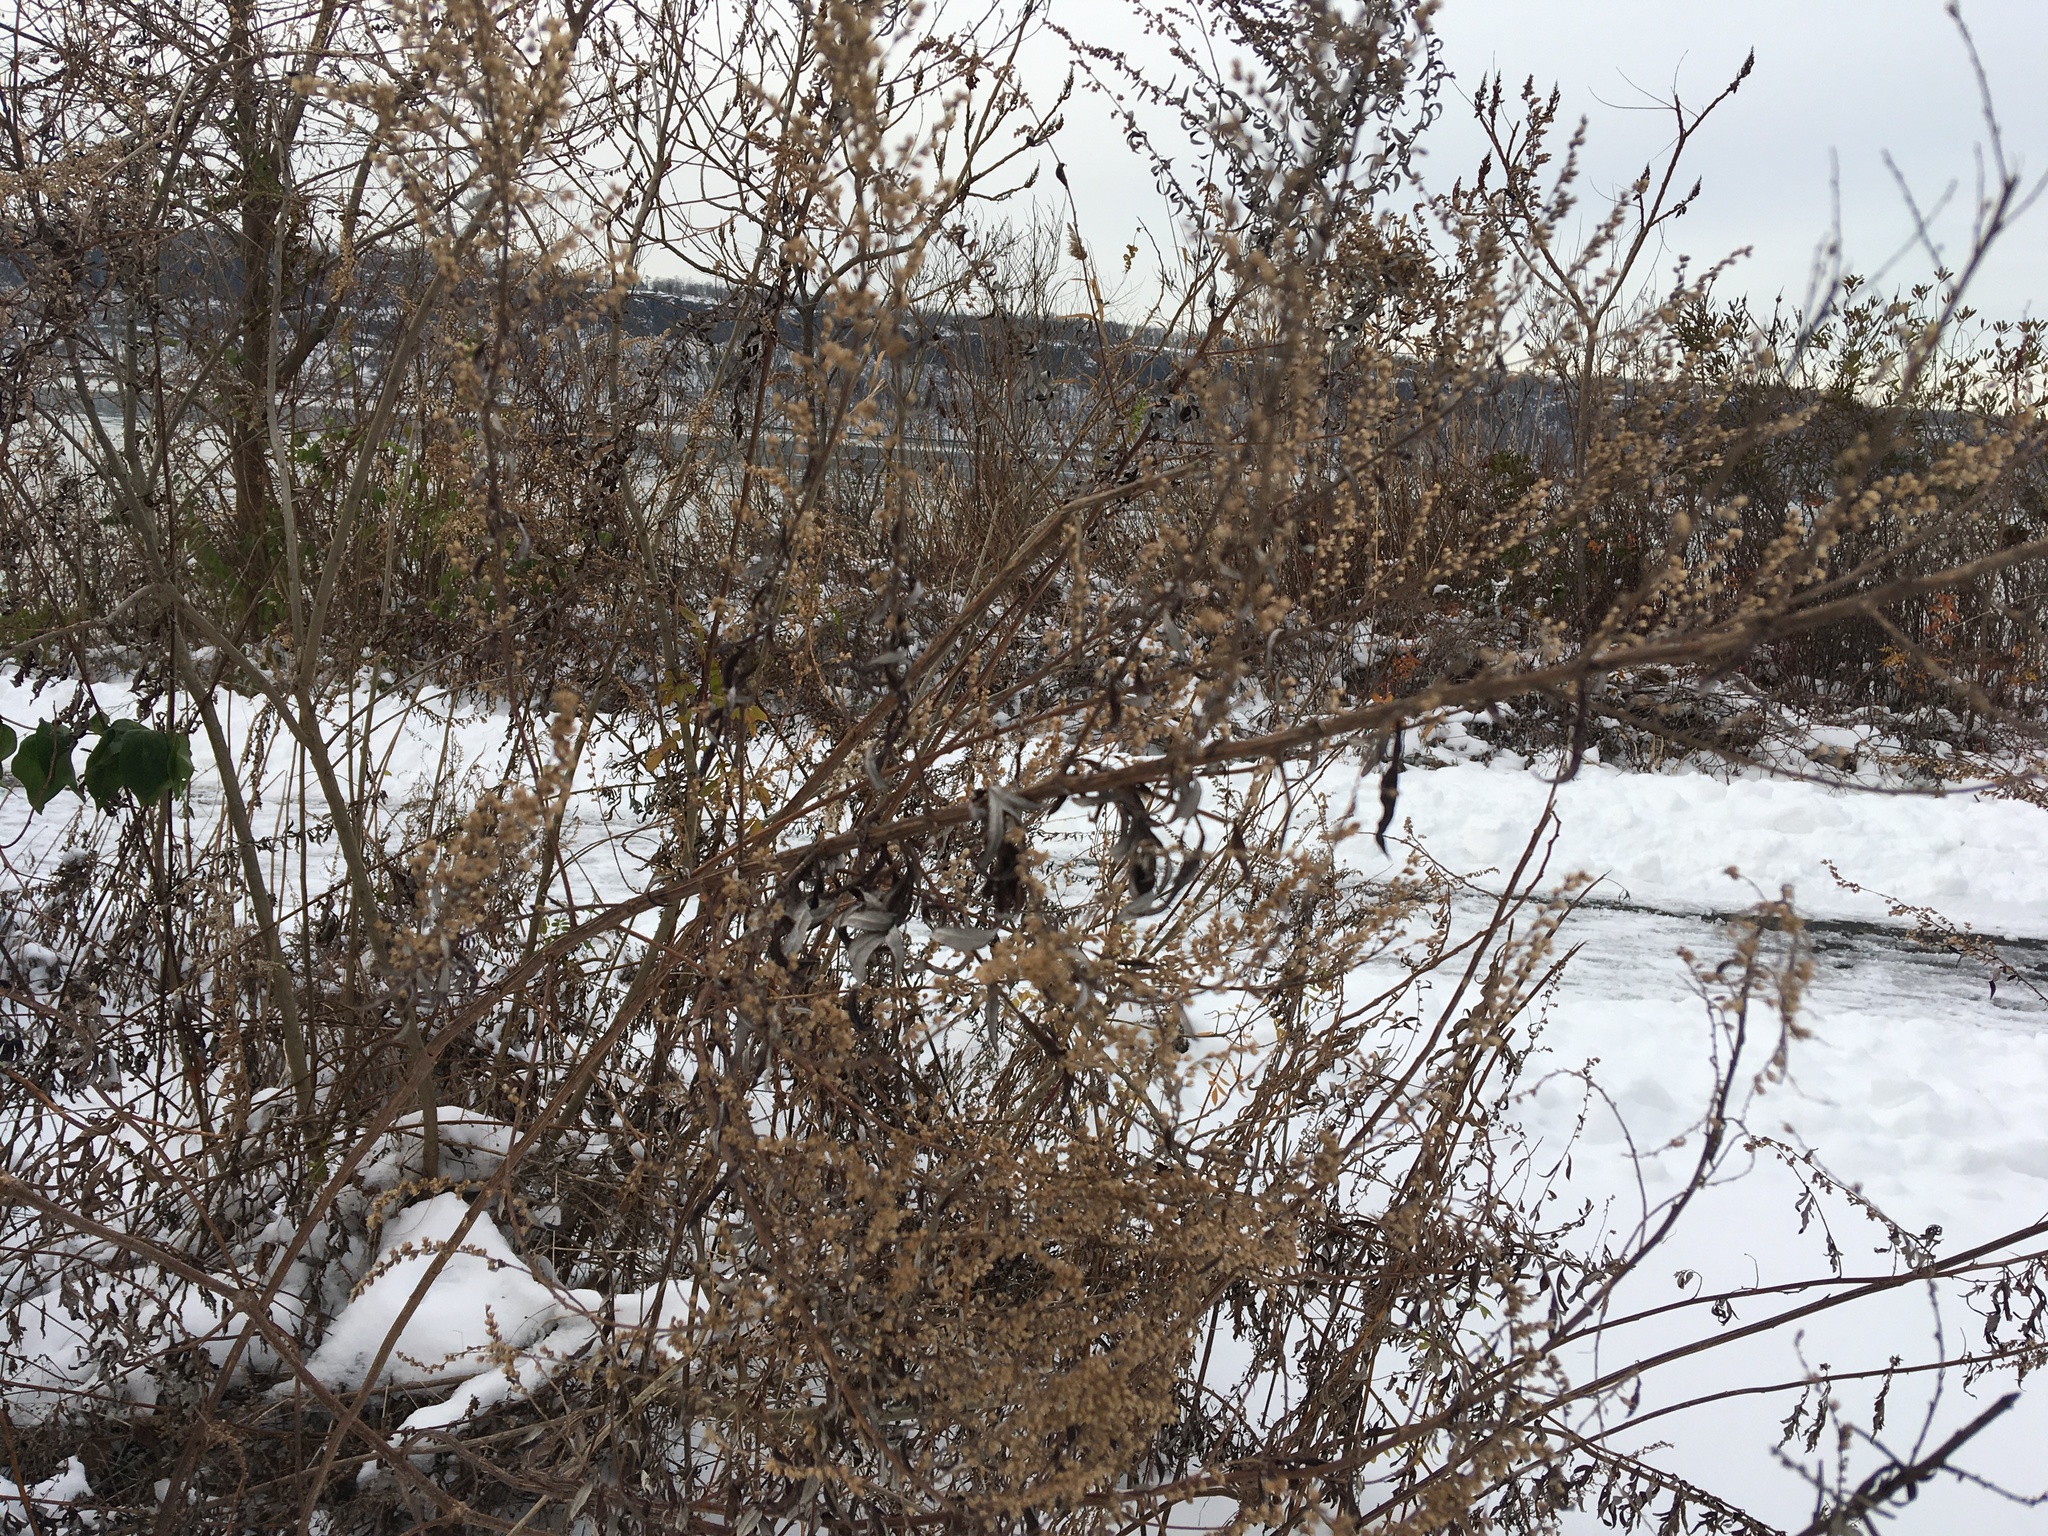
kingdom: Plantae
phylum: Tracheophyta
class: Magnoliopsida
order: Asterales
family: Asteraceae
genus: Artemisia
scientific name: Artemisia vulgaris
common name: Mugwort
